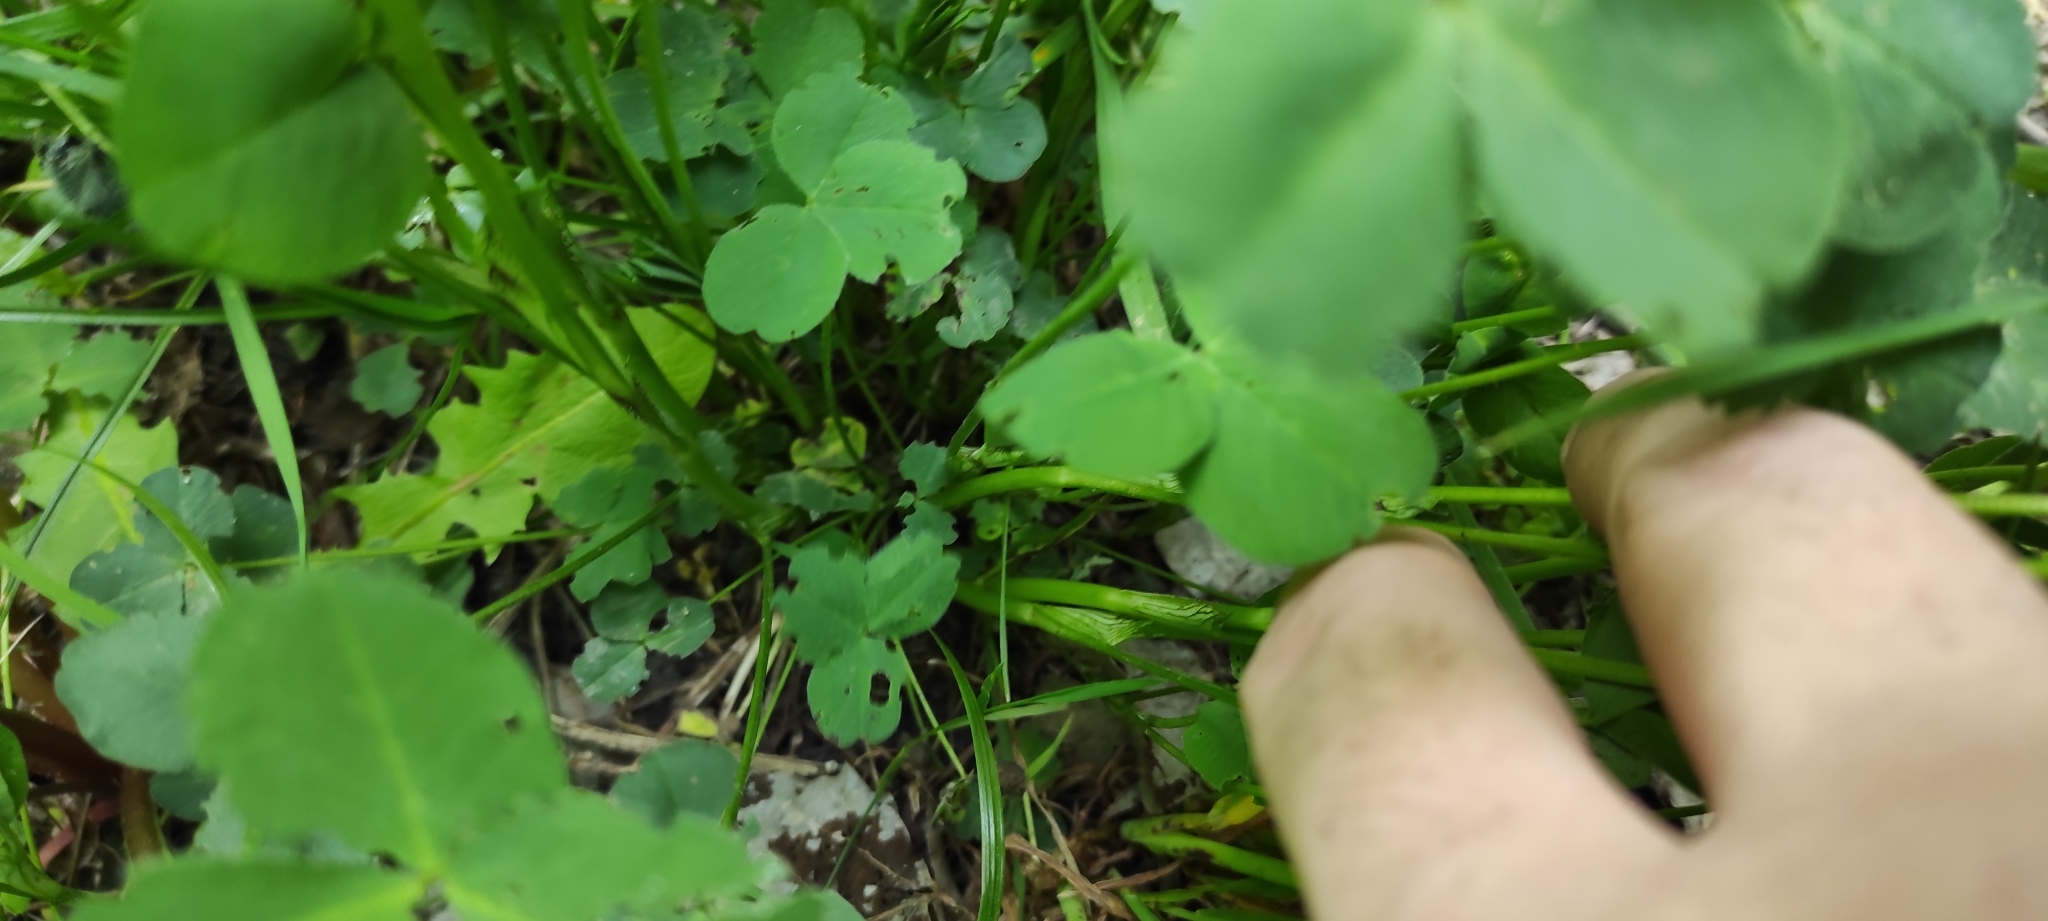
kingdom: Plantae
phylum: Tracheophyta
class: Magnoliopsida
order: Fabales
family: Fabaceae
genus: Trifolium
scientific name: Trifolium pratense
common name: Red clover
